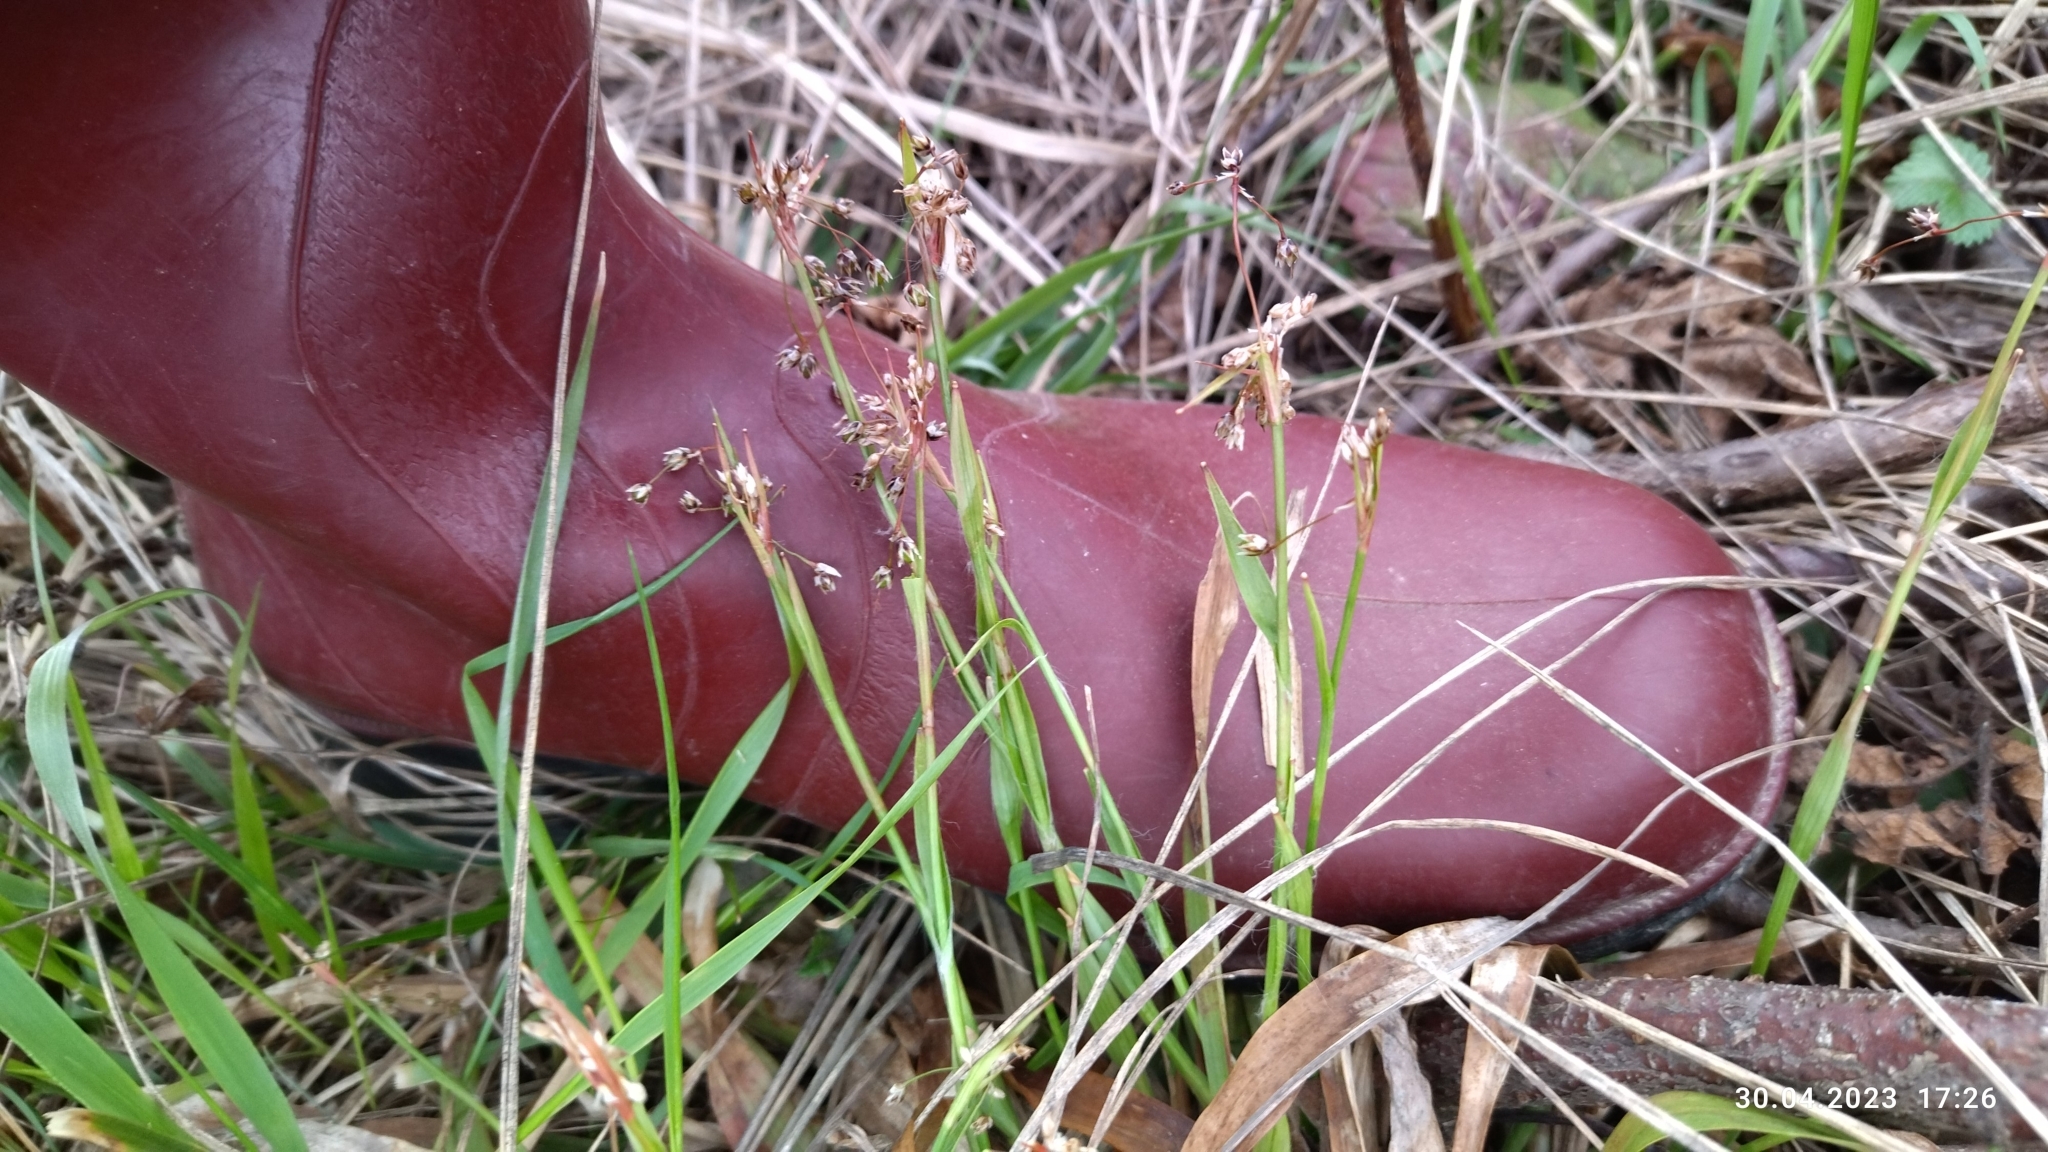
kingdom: Plantae
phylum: Tracheophyta
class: Liliopsida
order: Poales
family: Juncaceae
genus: Luzula
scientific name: Luzula pilosa
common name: Hairy wood-rush
